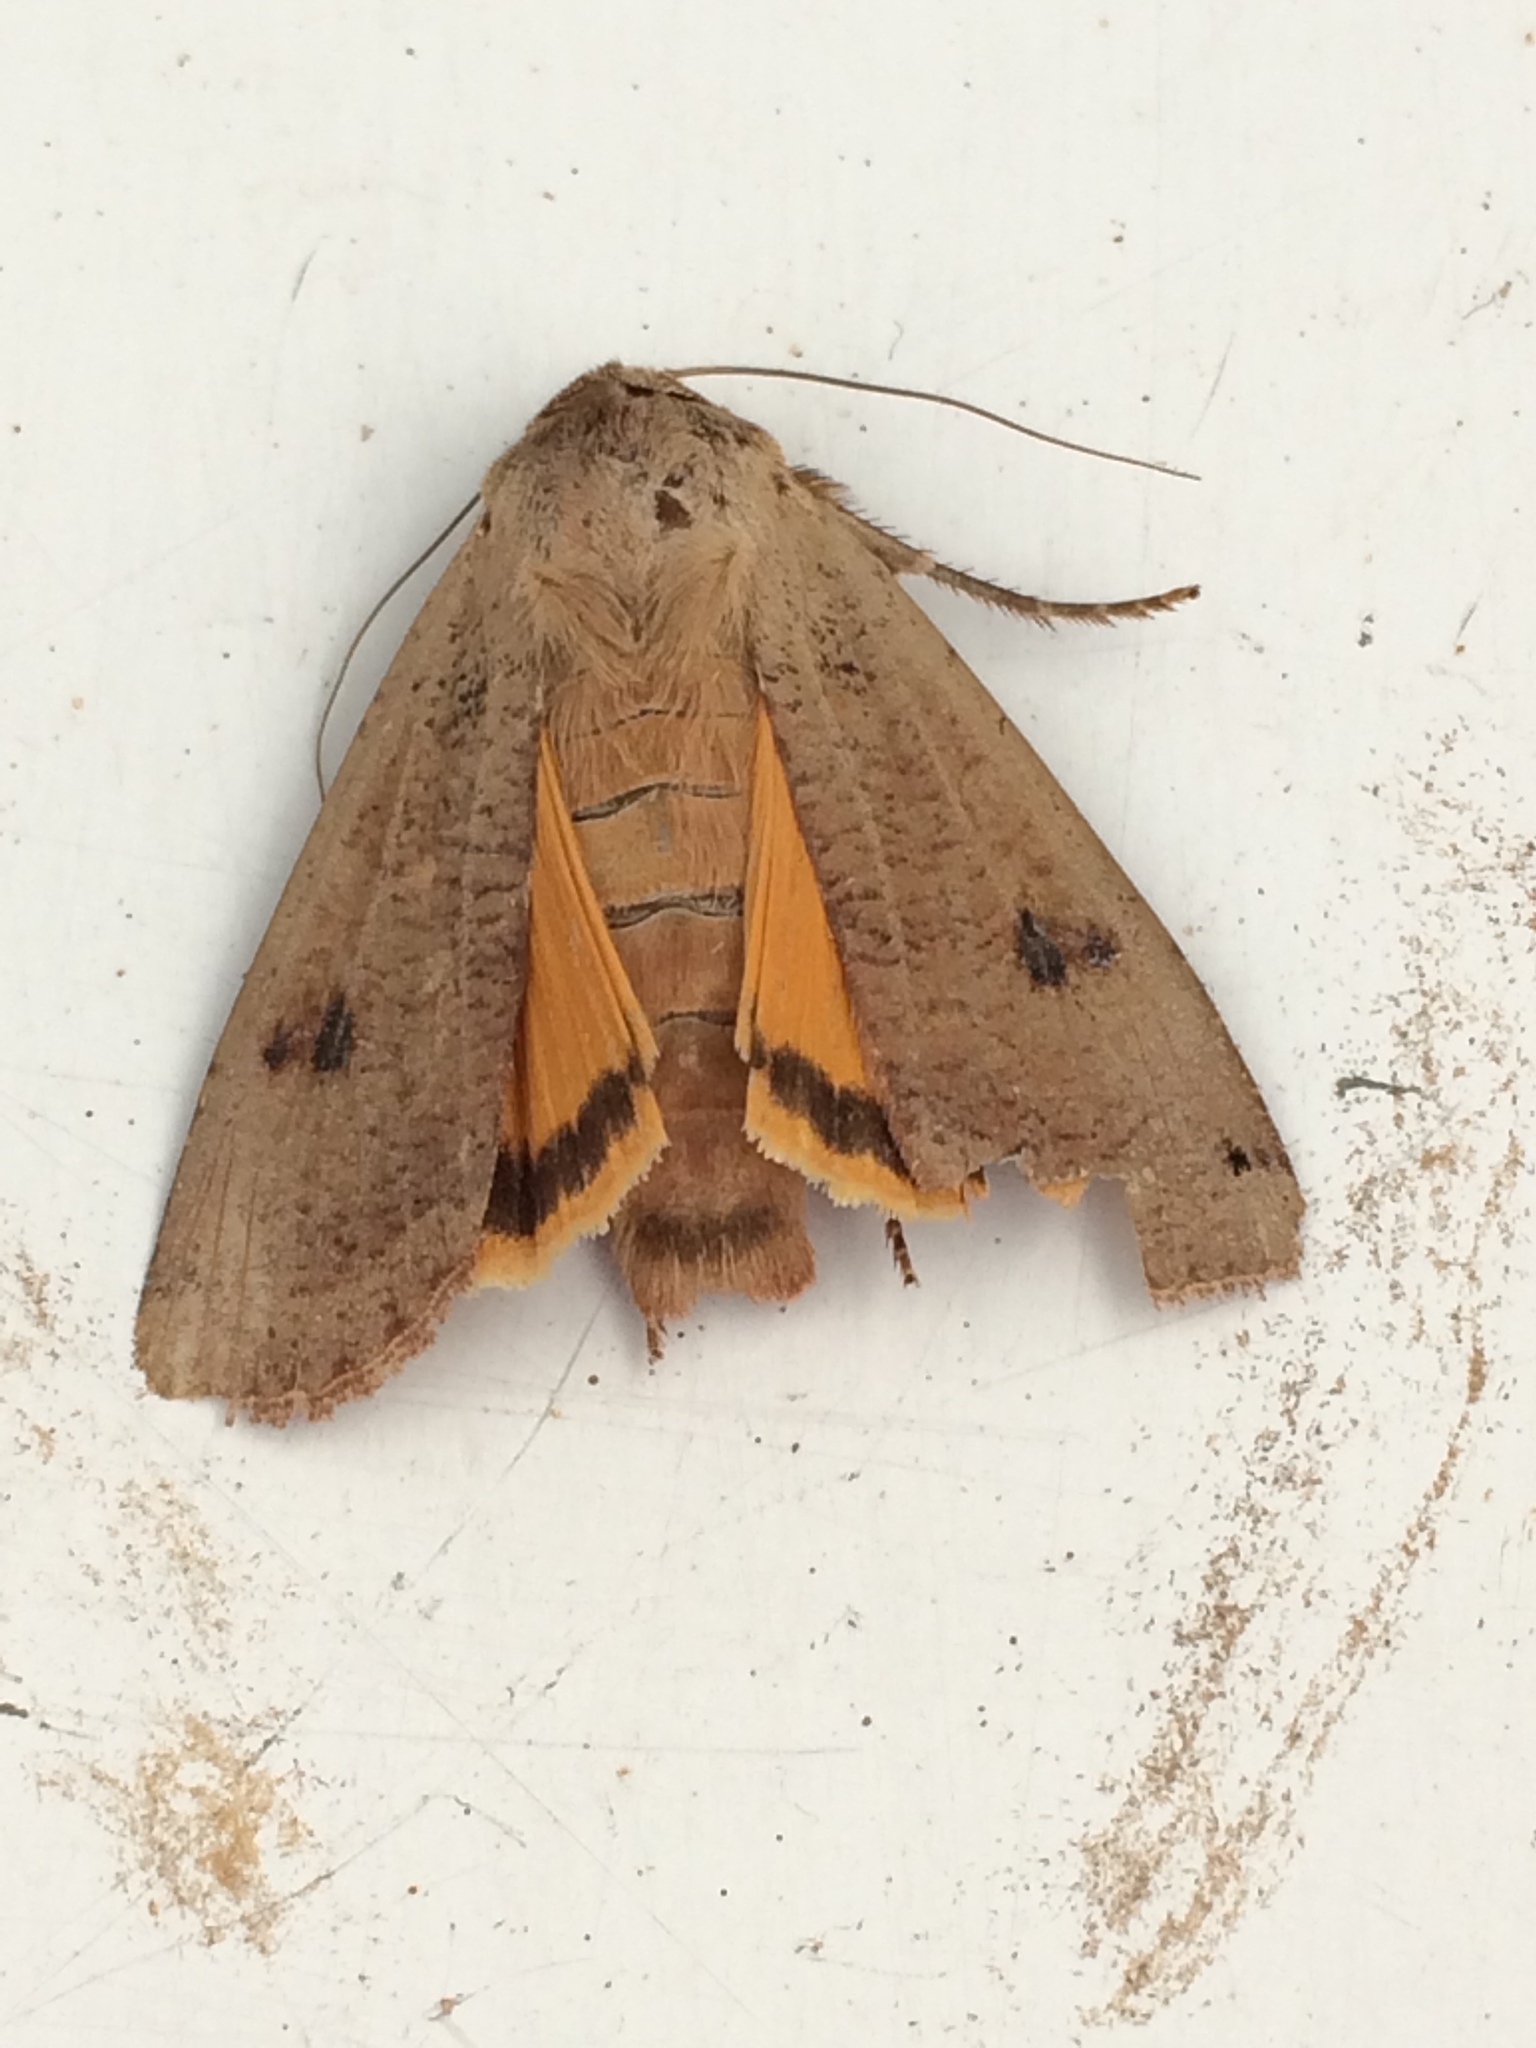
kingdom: Animalia
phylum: Arthropoda
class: Insecta
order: Lepidoptera
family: Noctuidae
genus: Noctua
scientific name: Noctua pronuba
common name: Large yellow underwing
